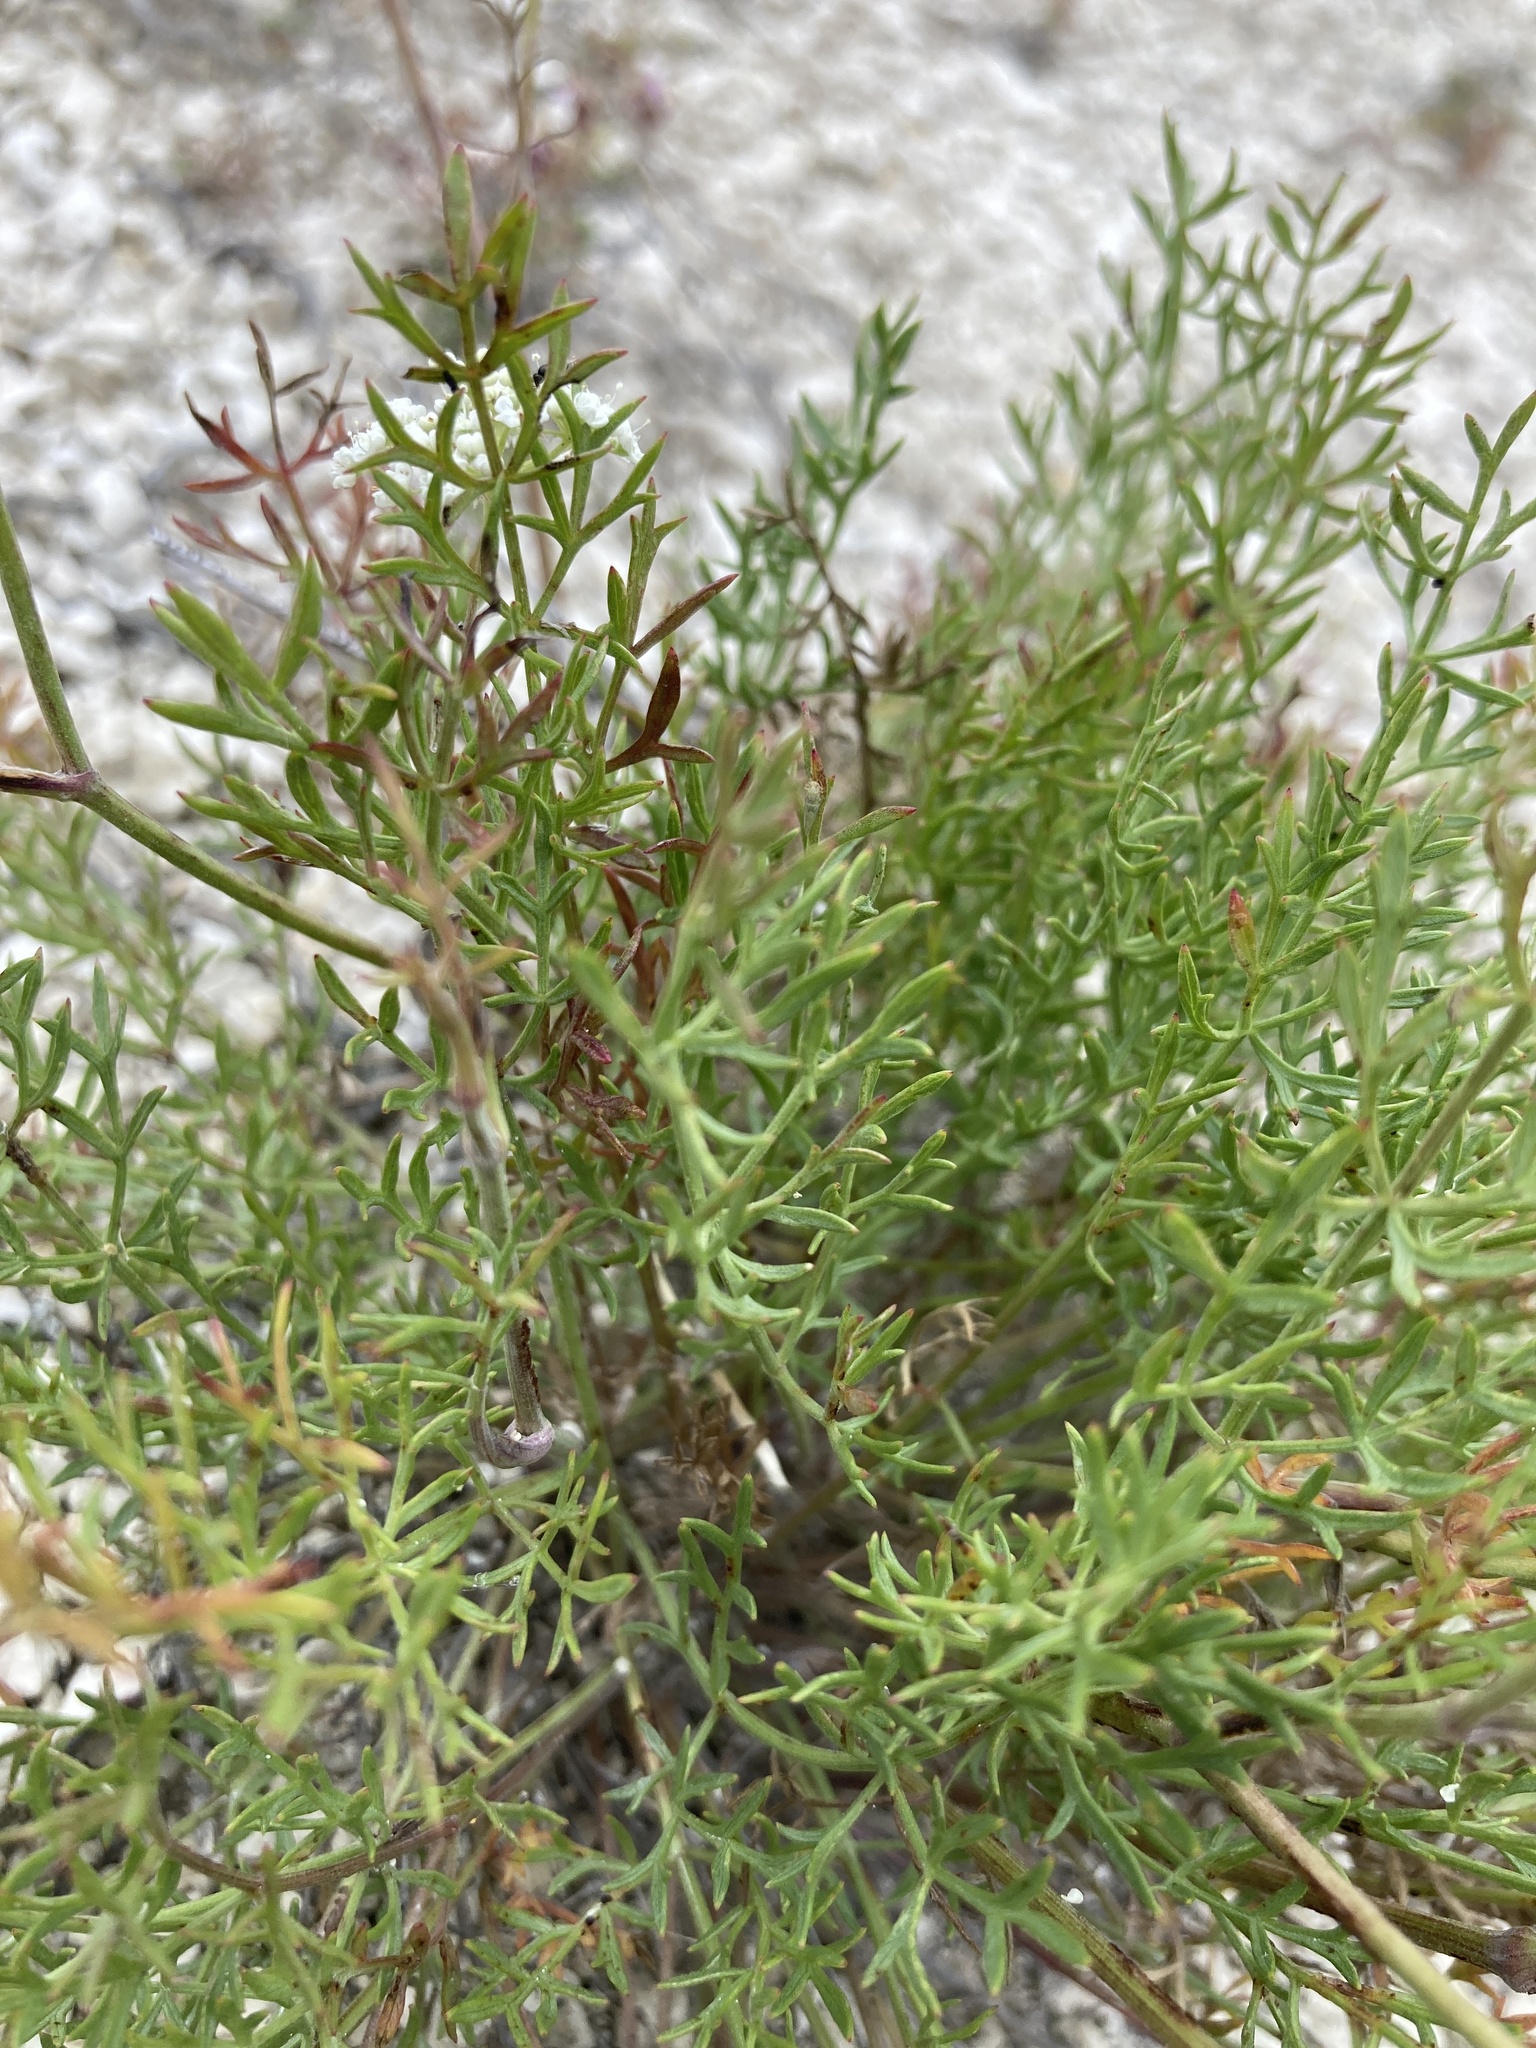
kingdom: Plantae
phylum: Tracheophyta
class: Magnoliopsida
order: Apiales
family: Apiaceae
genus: Pimpinella
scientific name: Pimpinella tragium
